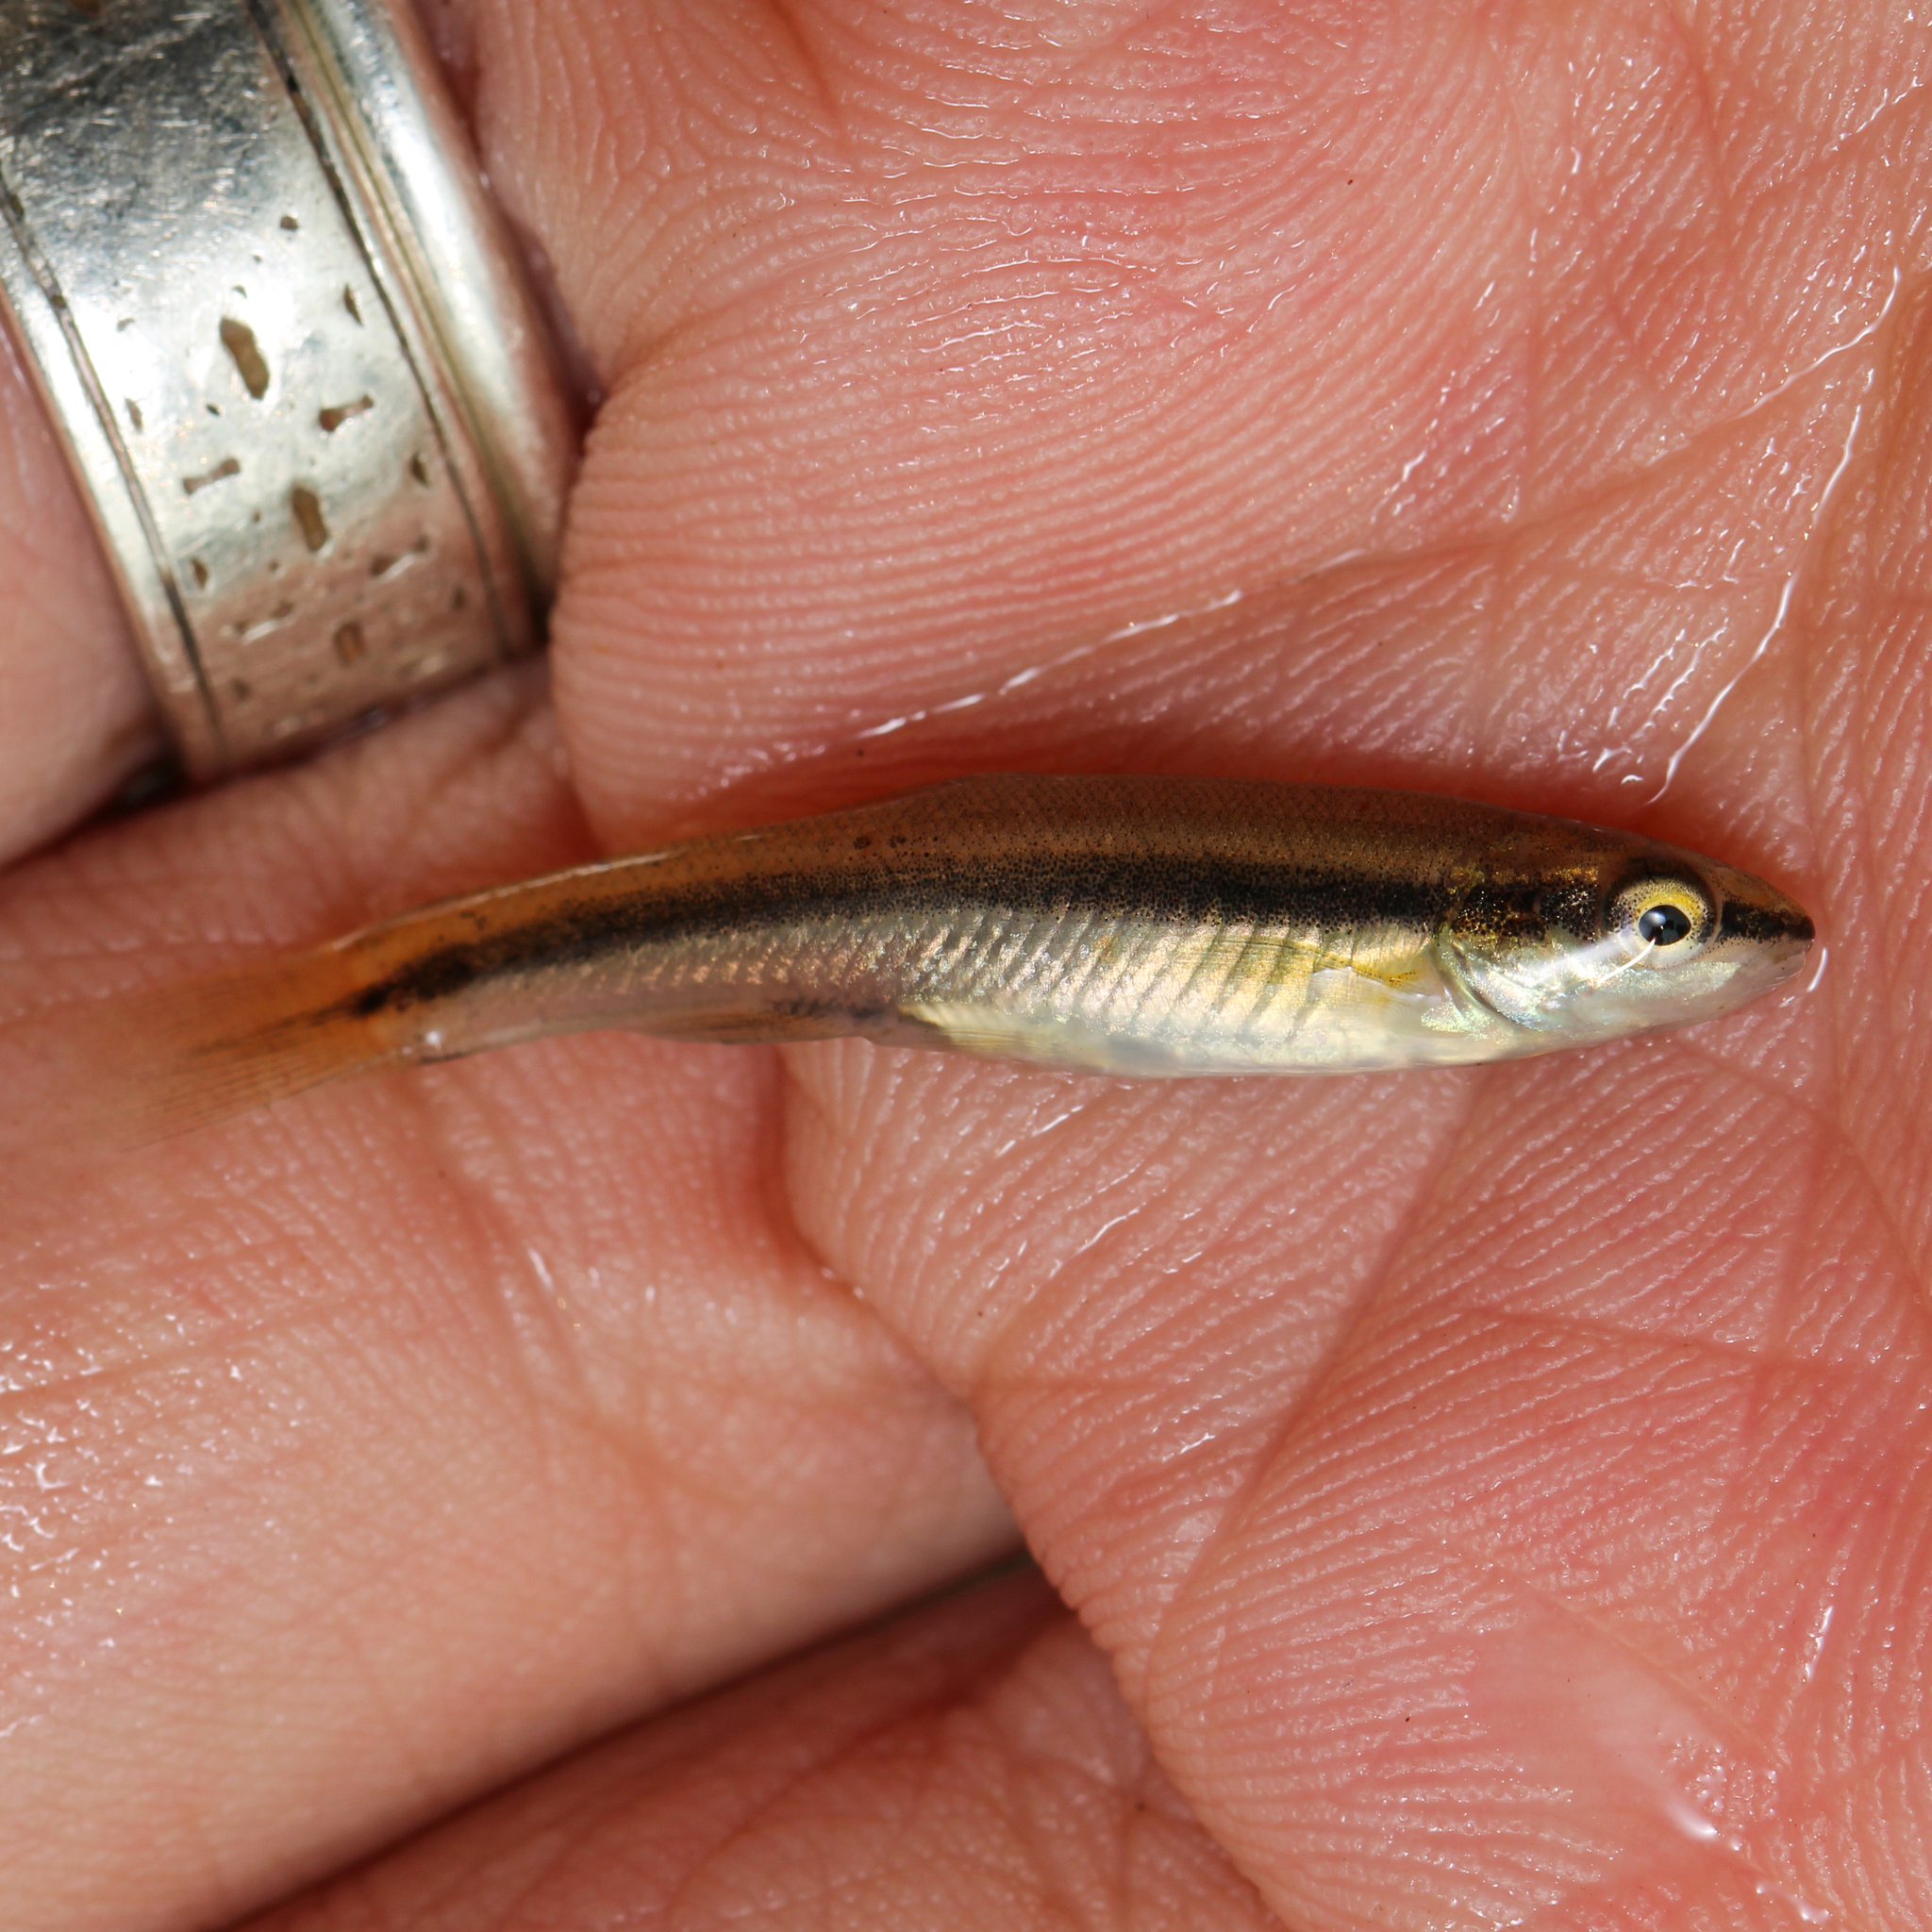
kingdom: Animalia
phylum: Chordata
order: Cypriniformes
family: Cyprinidae
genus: Rhinichthys
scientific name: Rhinichthys atratulus
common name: Eastern blacknose dace
